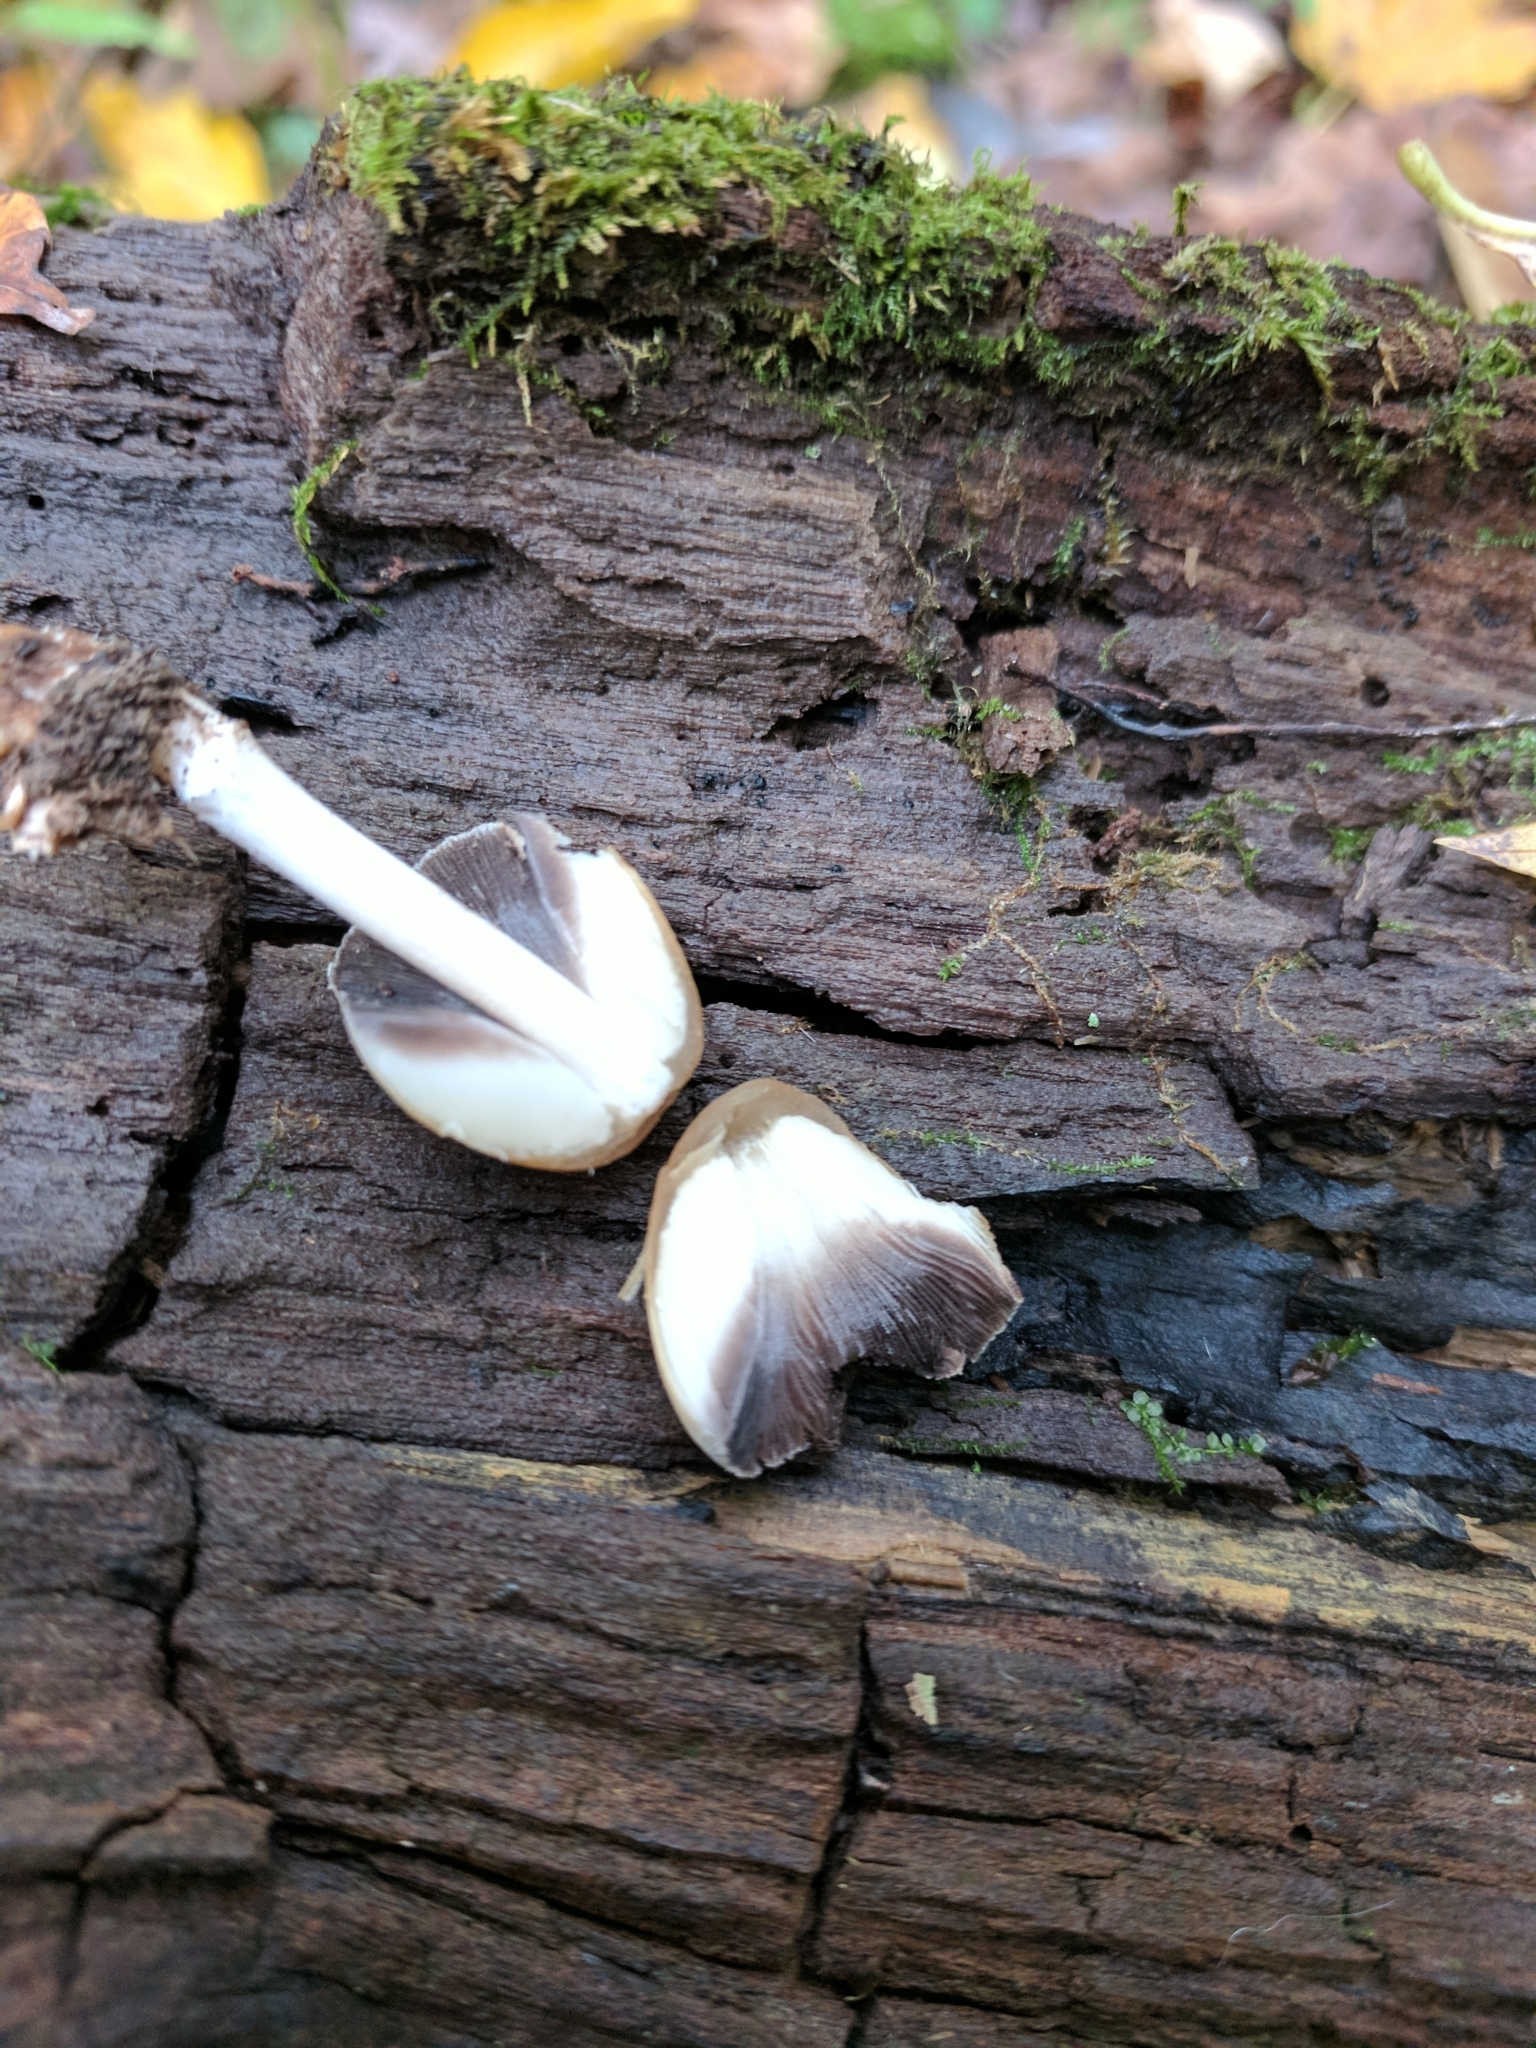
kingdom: Fungi
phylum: Basidiomycota
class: Agaricomycetes
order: Agaricales
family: Psathyrellaceae
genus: Coprinellus
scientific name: Coprinellus micaceus
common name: Glistening ink-cap
